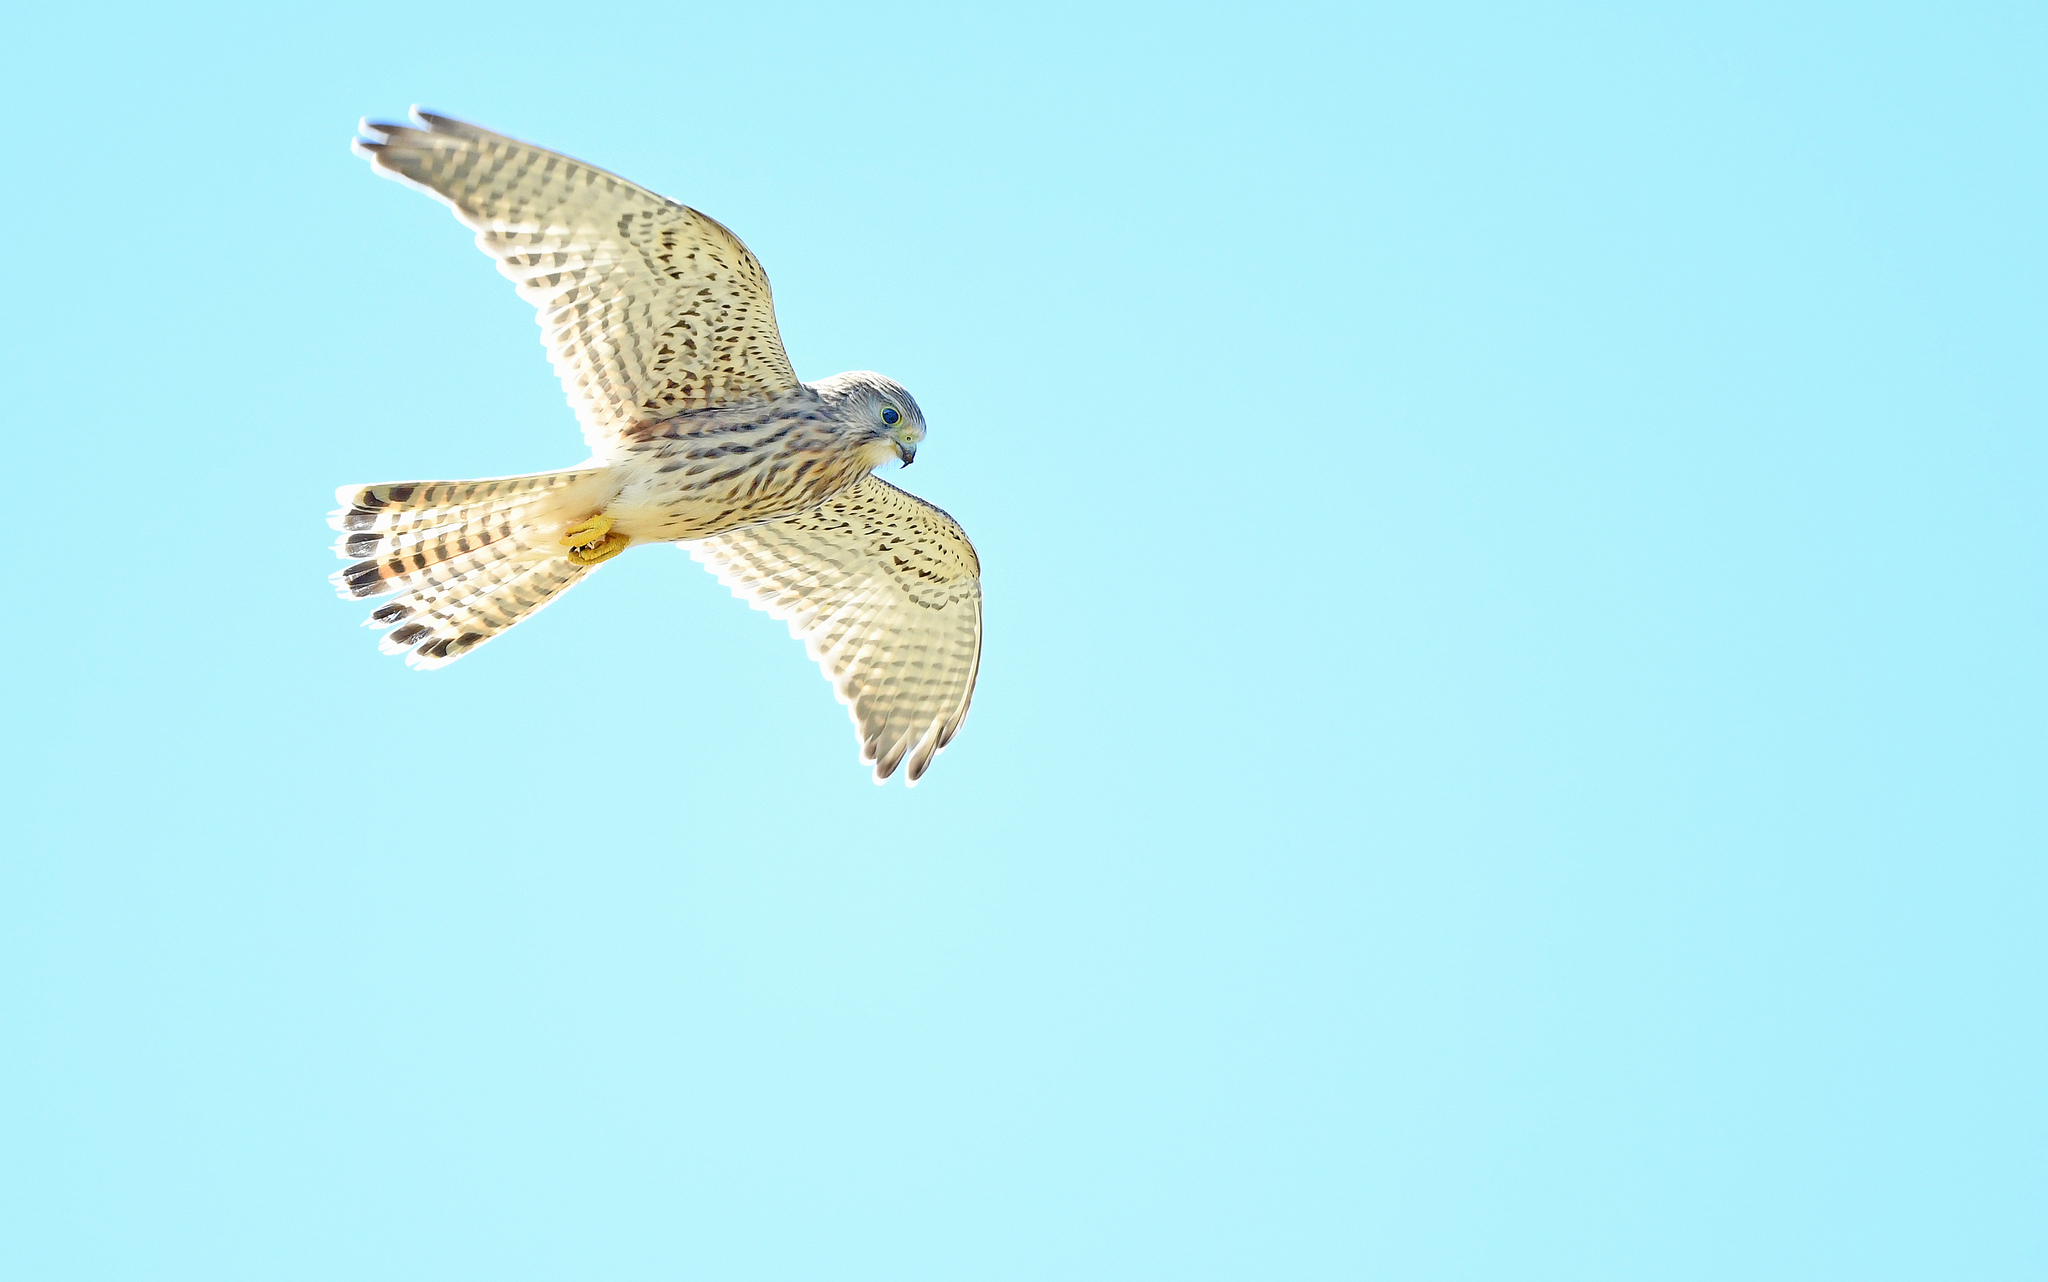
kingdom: Animalia
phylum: Chordata
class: Aves
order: Falconiformes
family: Falconidae
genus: Falco
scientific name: Falco tinnunculus
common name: Common kestrel
